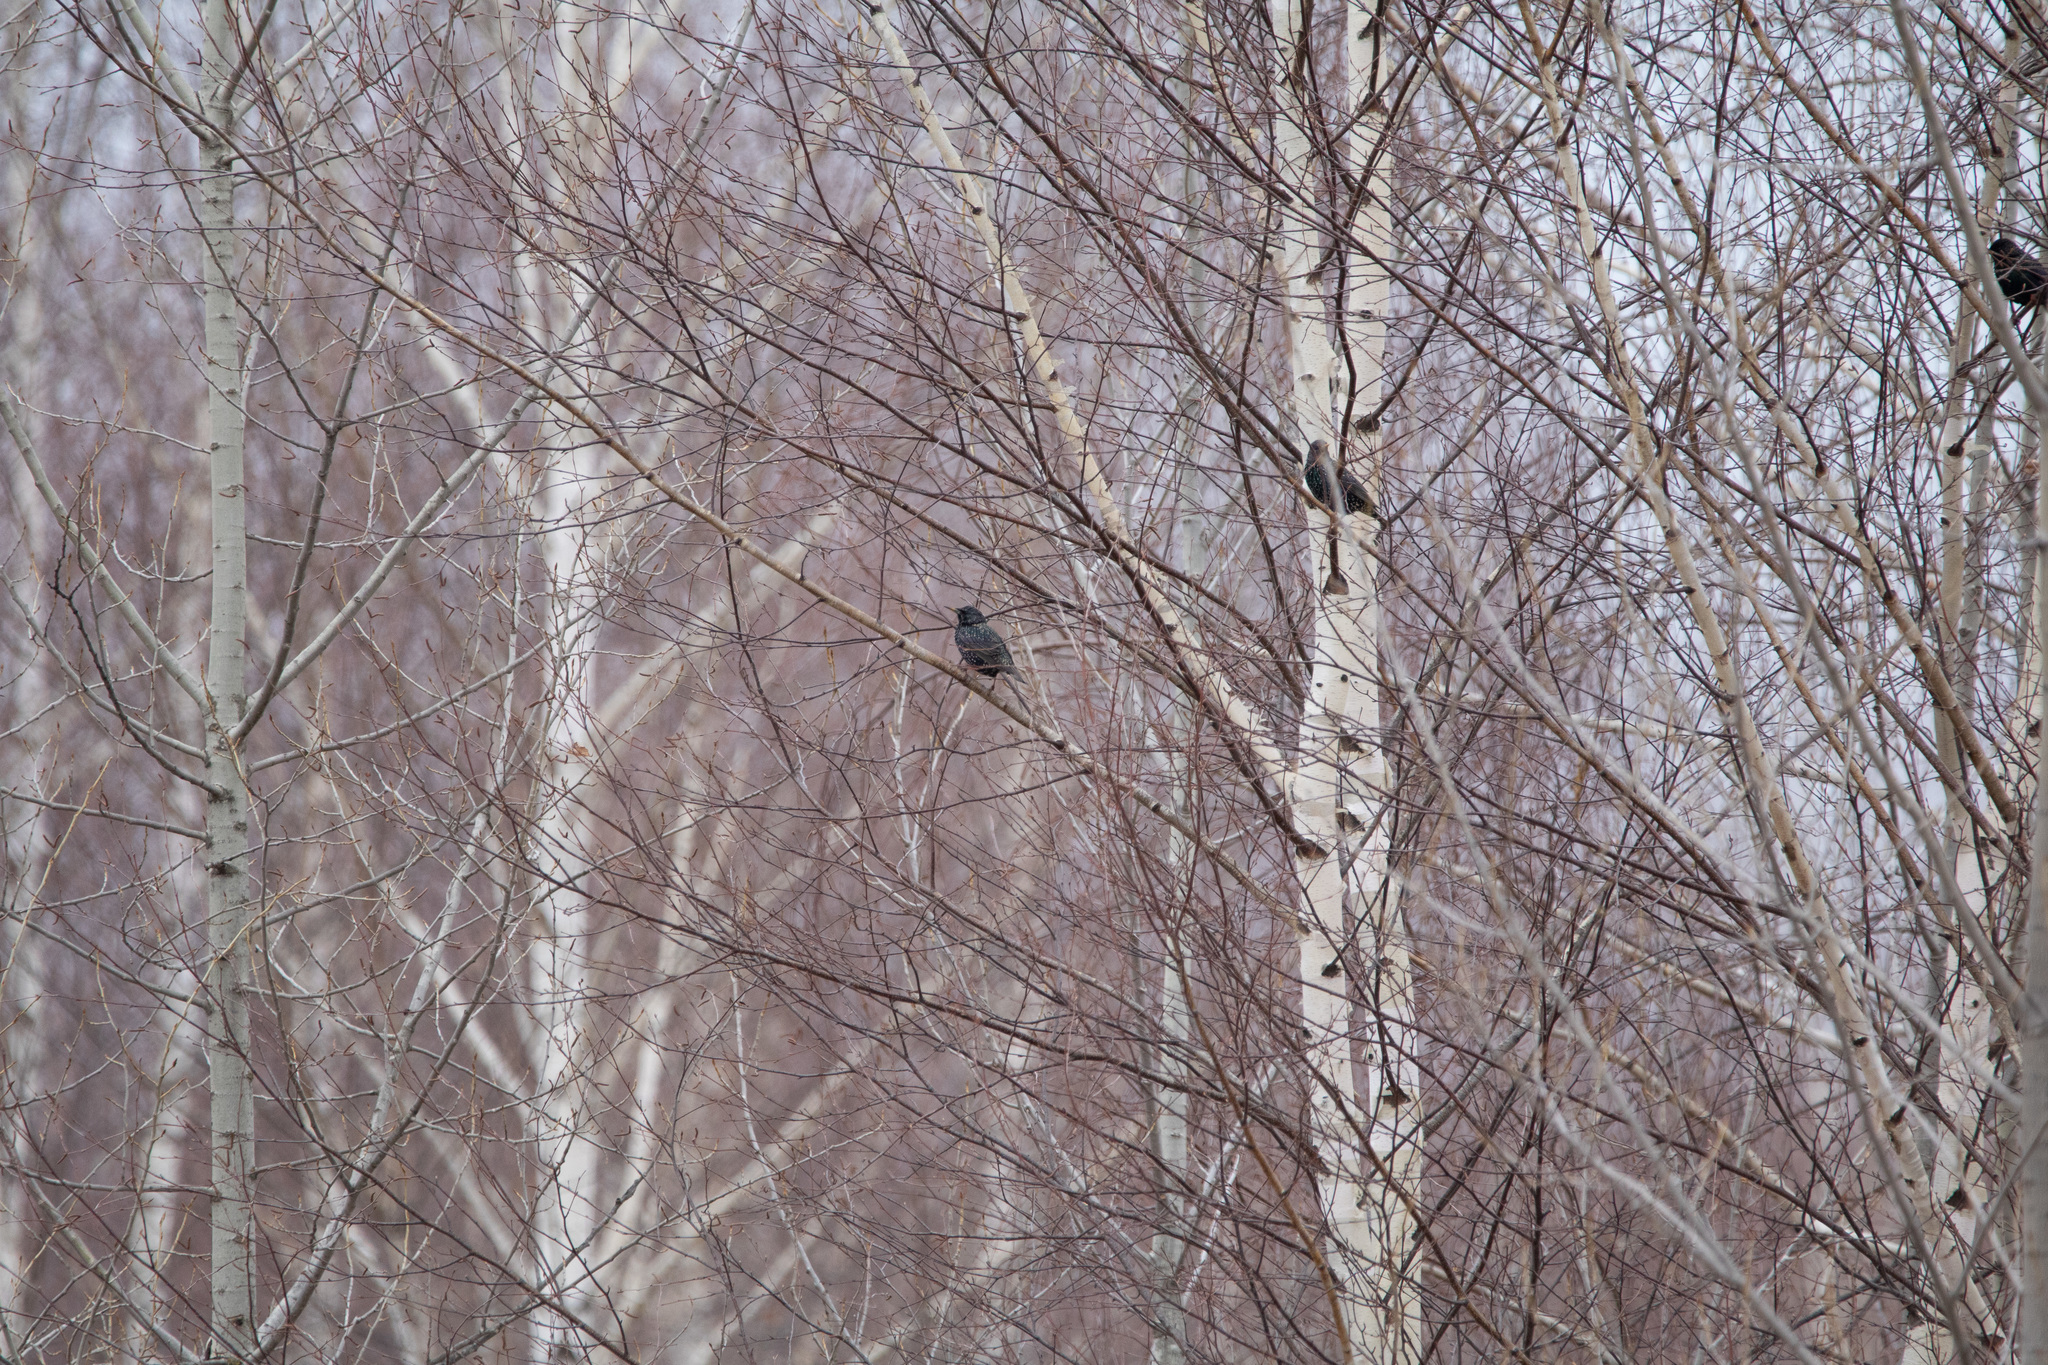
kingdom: Animalia
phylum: Chordata
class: Aves
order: Passeriformes
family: Sturnidae
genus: Sturnus
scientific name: Sturnus vulgaris
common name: Common starling
